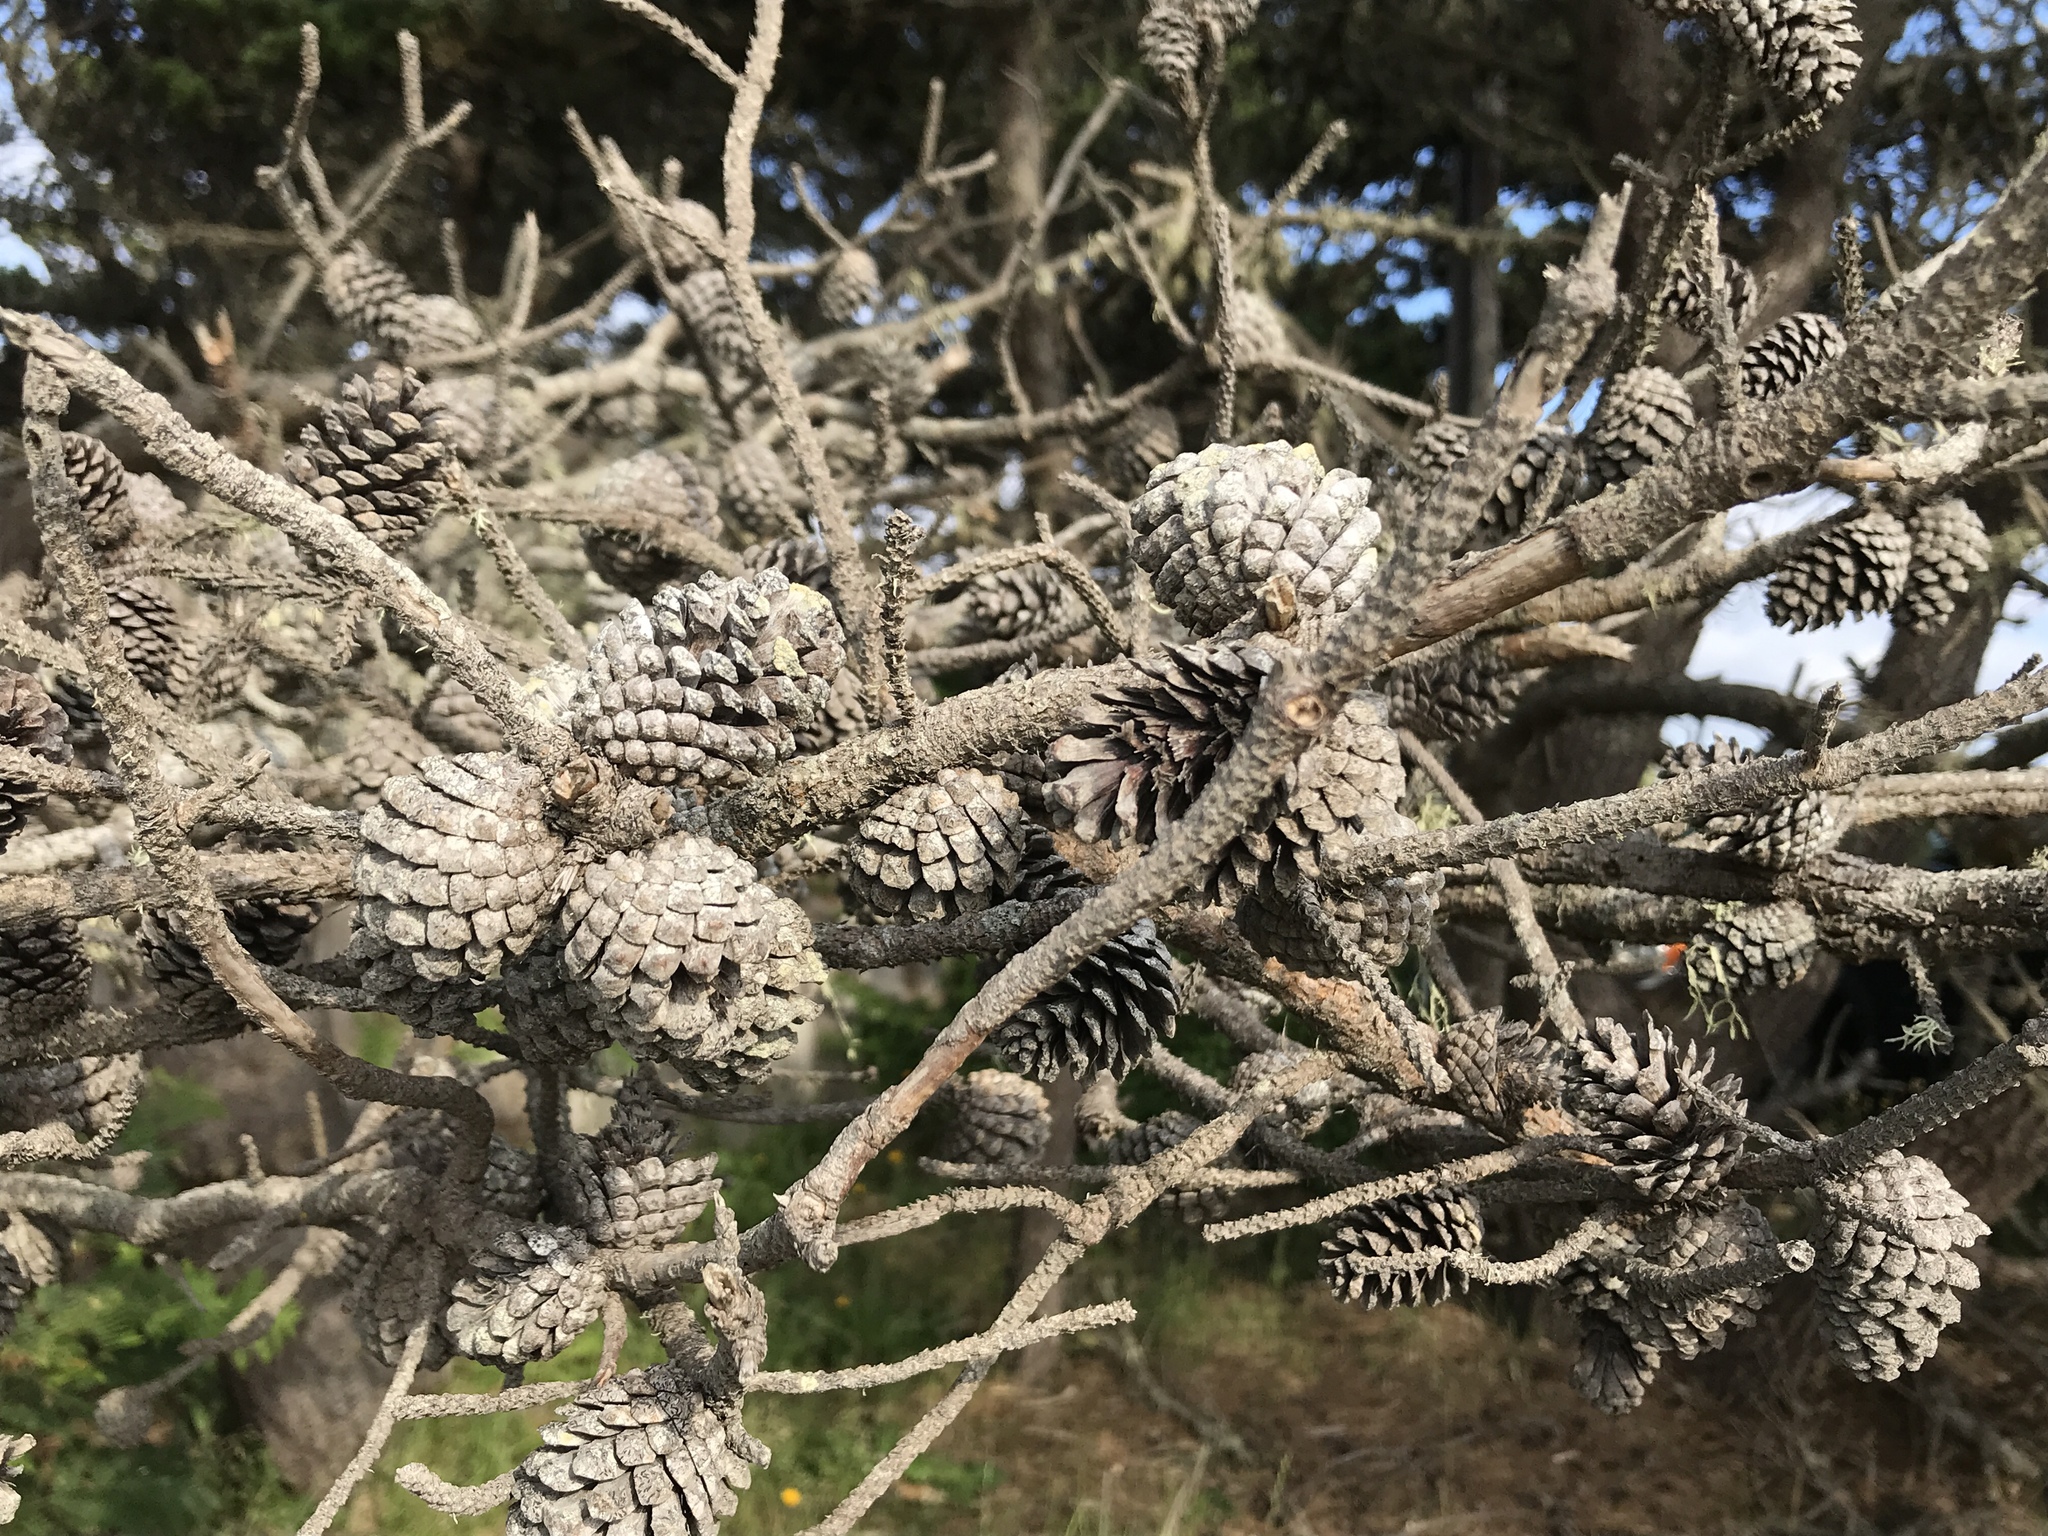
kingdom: Plantae
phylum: Tracheophyta
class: Pinopsida
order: Pinales
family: Pinaceae
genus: Pinus
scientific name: Pinus contorta
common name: Lodgepole pine
